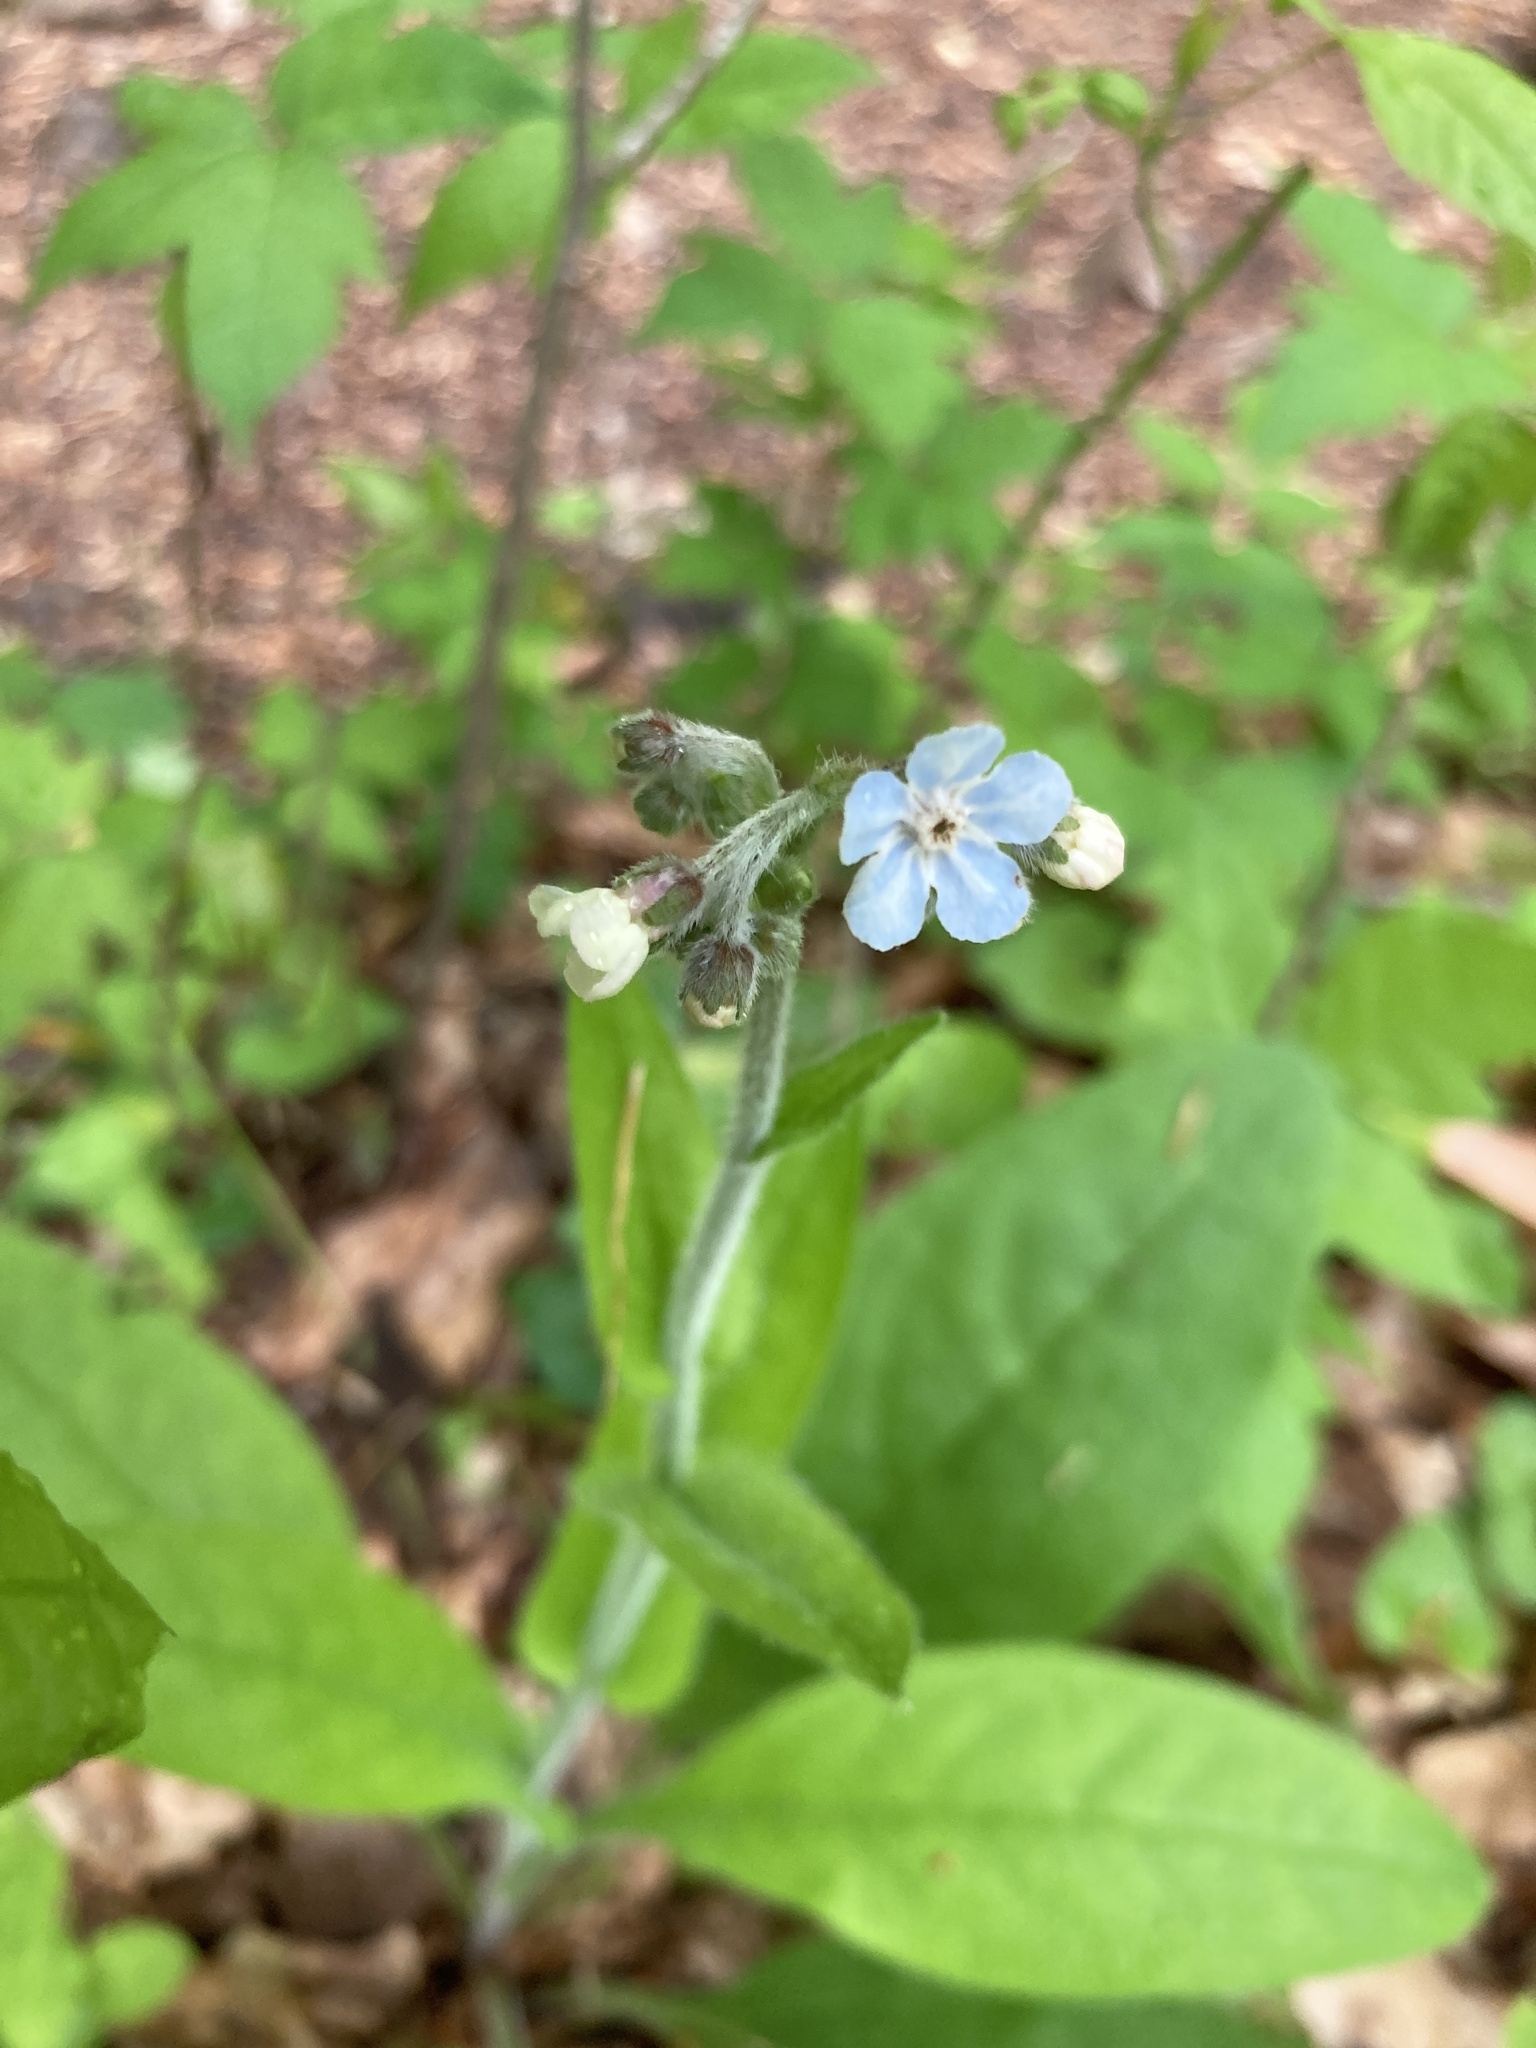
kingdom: Plantae
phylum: Tracheophyta
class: Magnoliopsida
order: Boraginales
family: Boraginaceae
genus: Andersonglossum
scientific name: Andersonglossum virginianum
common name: Wild comfrey
